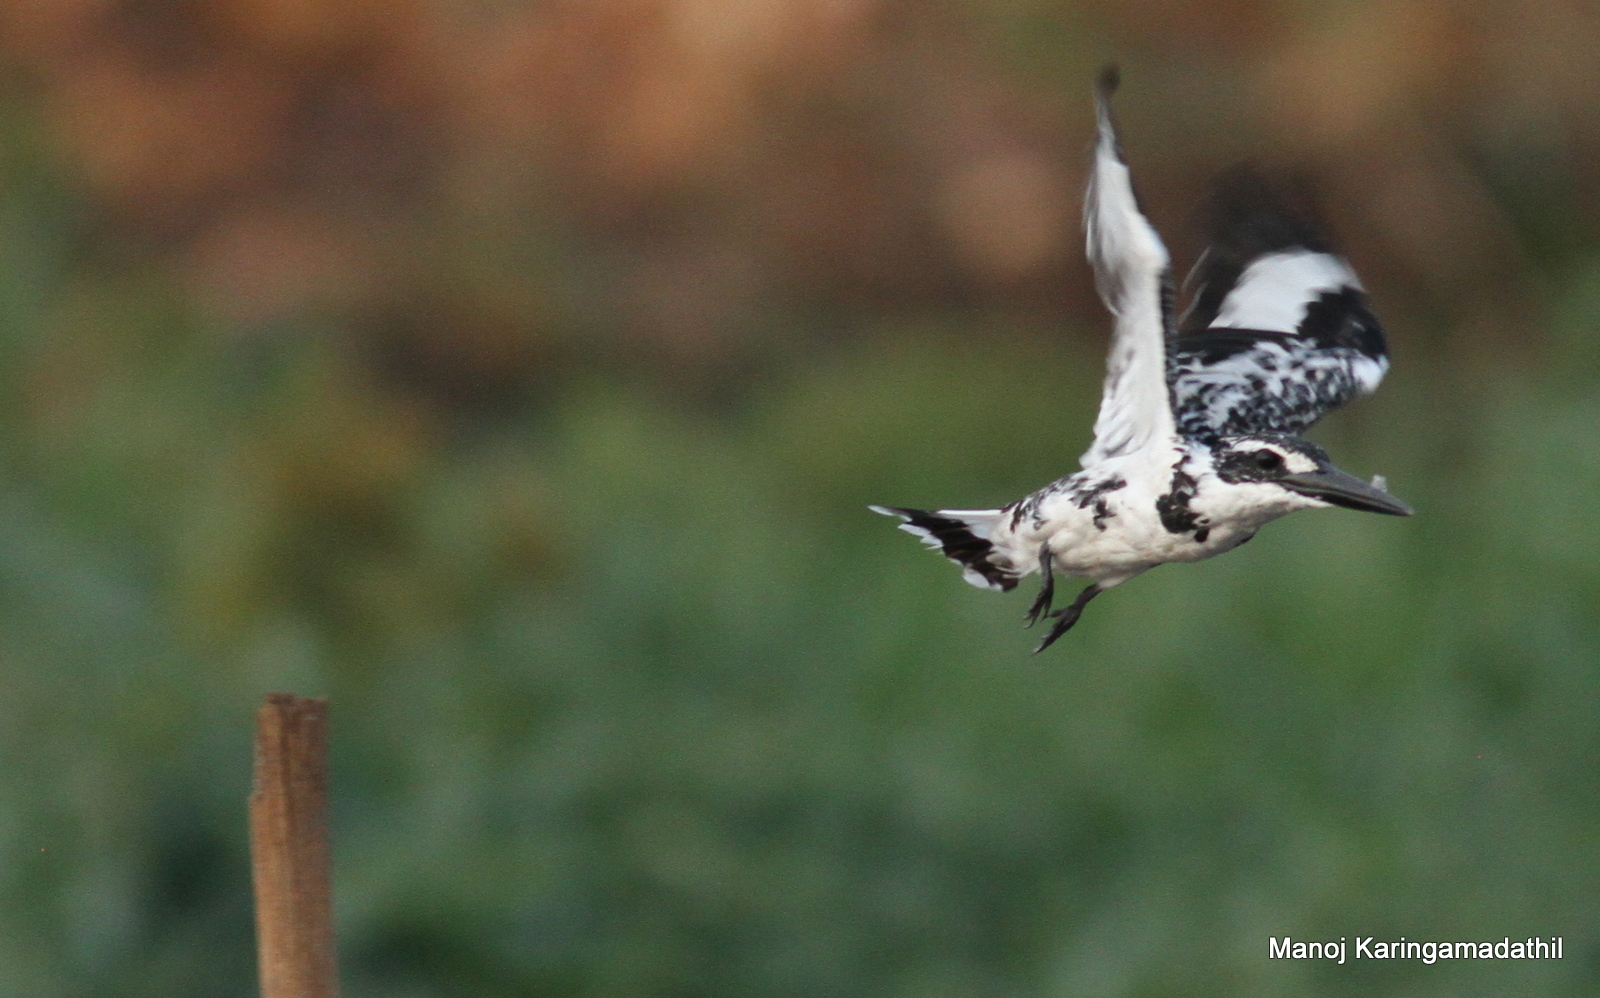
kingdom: Animalia
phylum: Chordata
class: Aves
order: Coraciiformes
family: Alcedinidae
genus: Ceryle
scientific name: Ceryle rudis
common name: Pied kingfisher
